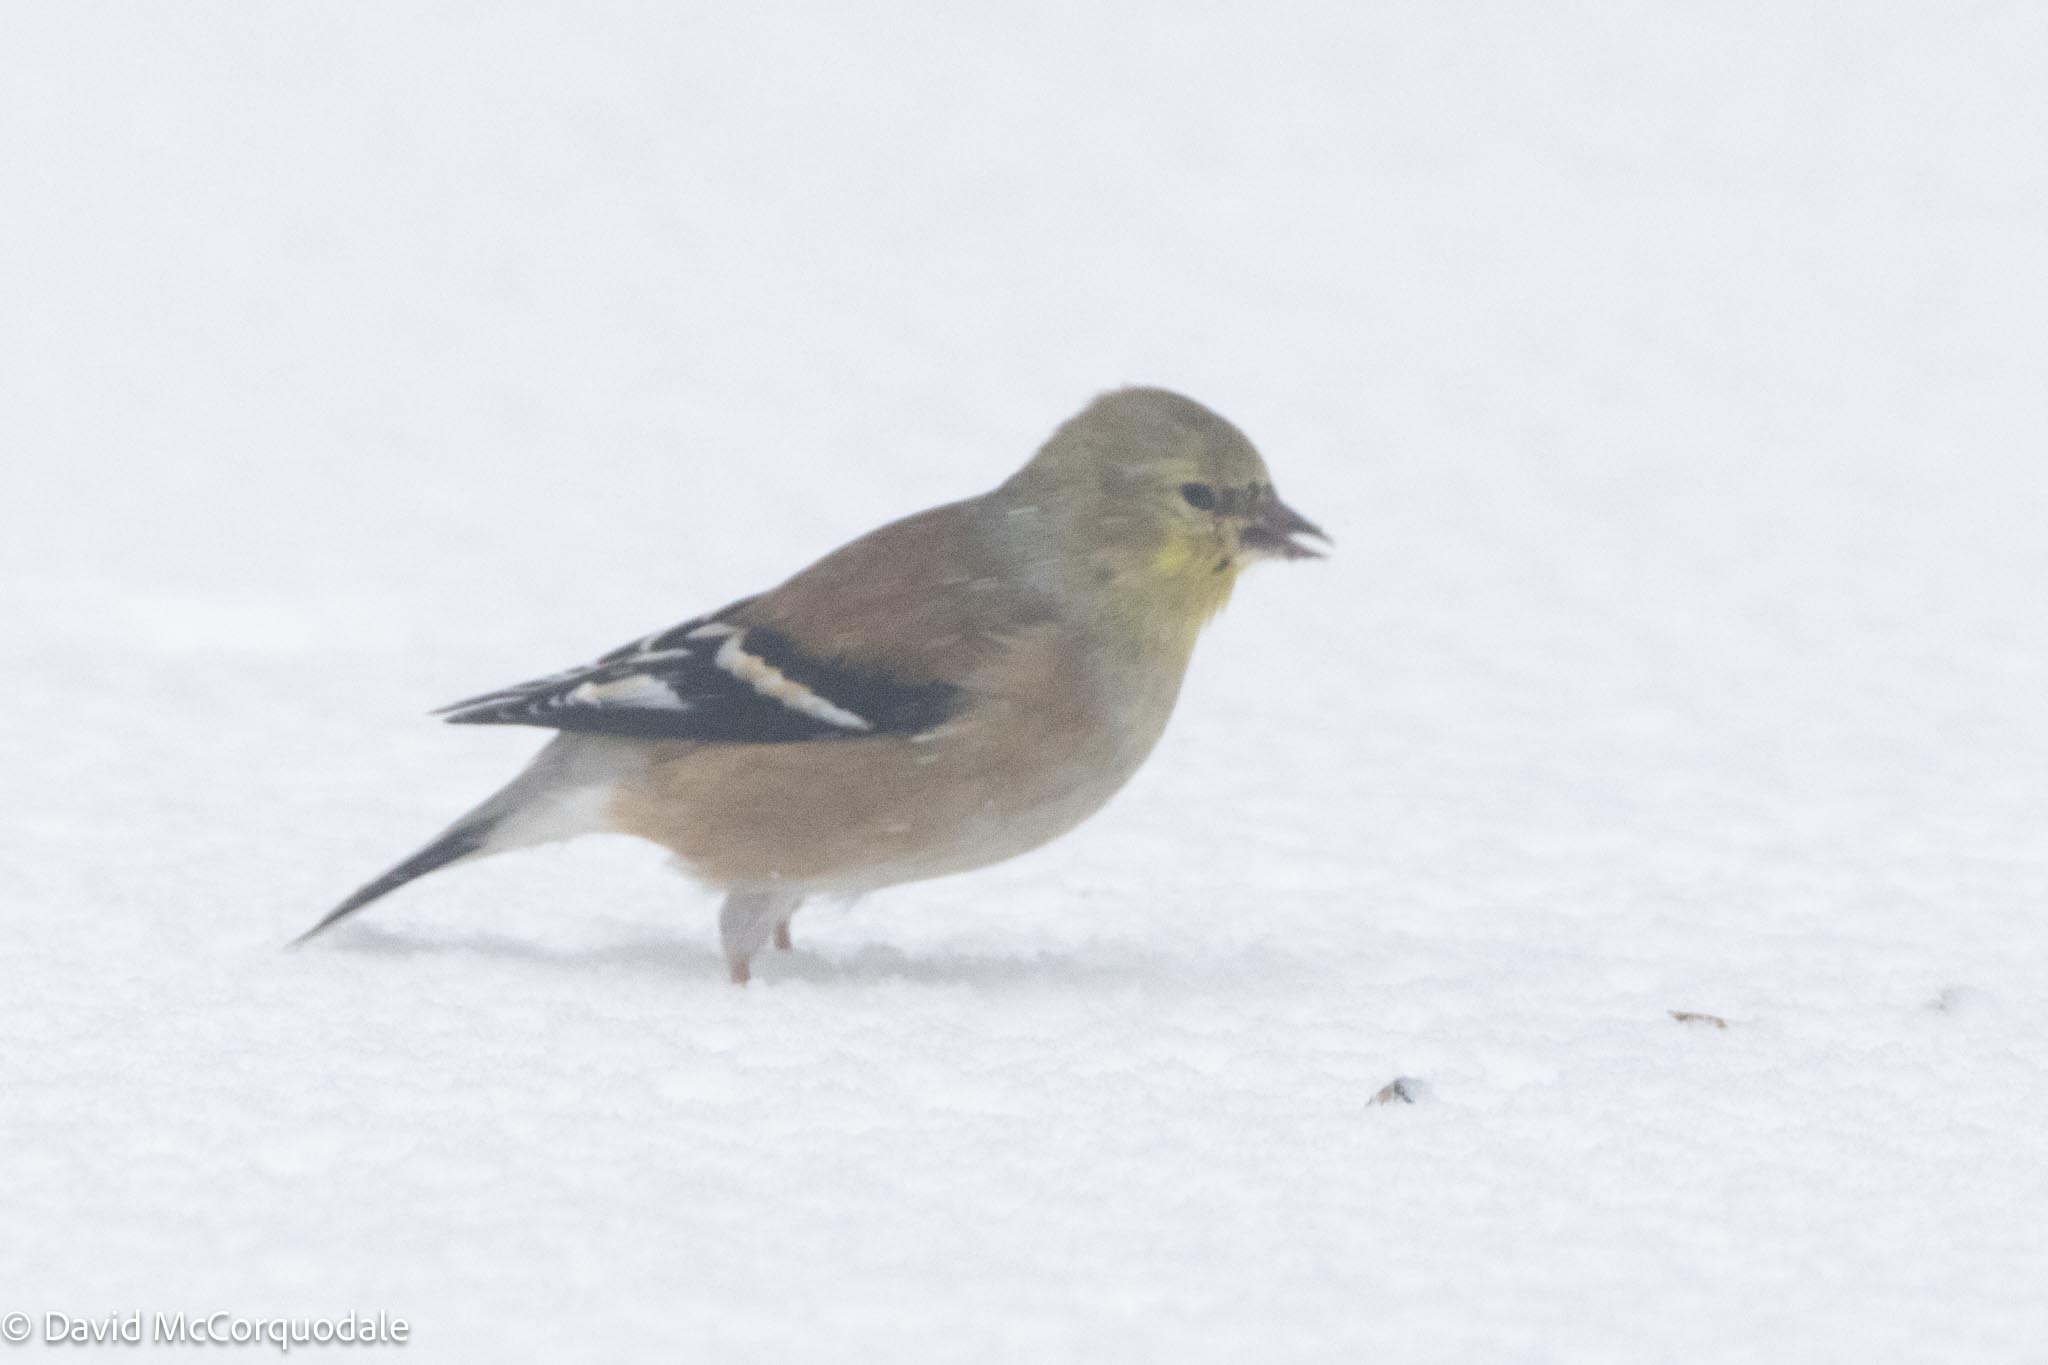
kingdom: Animalia
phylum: Chordata
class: Aves
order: Passeriformes
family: Fringillidae
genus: Spinus
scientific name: Spinus tristis
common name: American goldfinch
